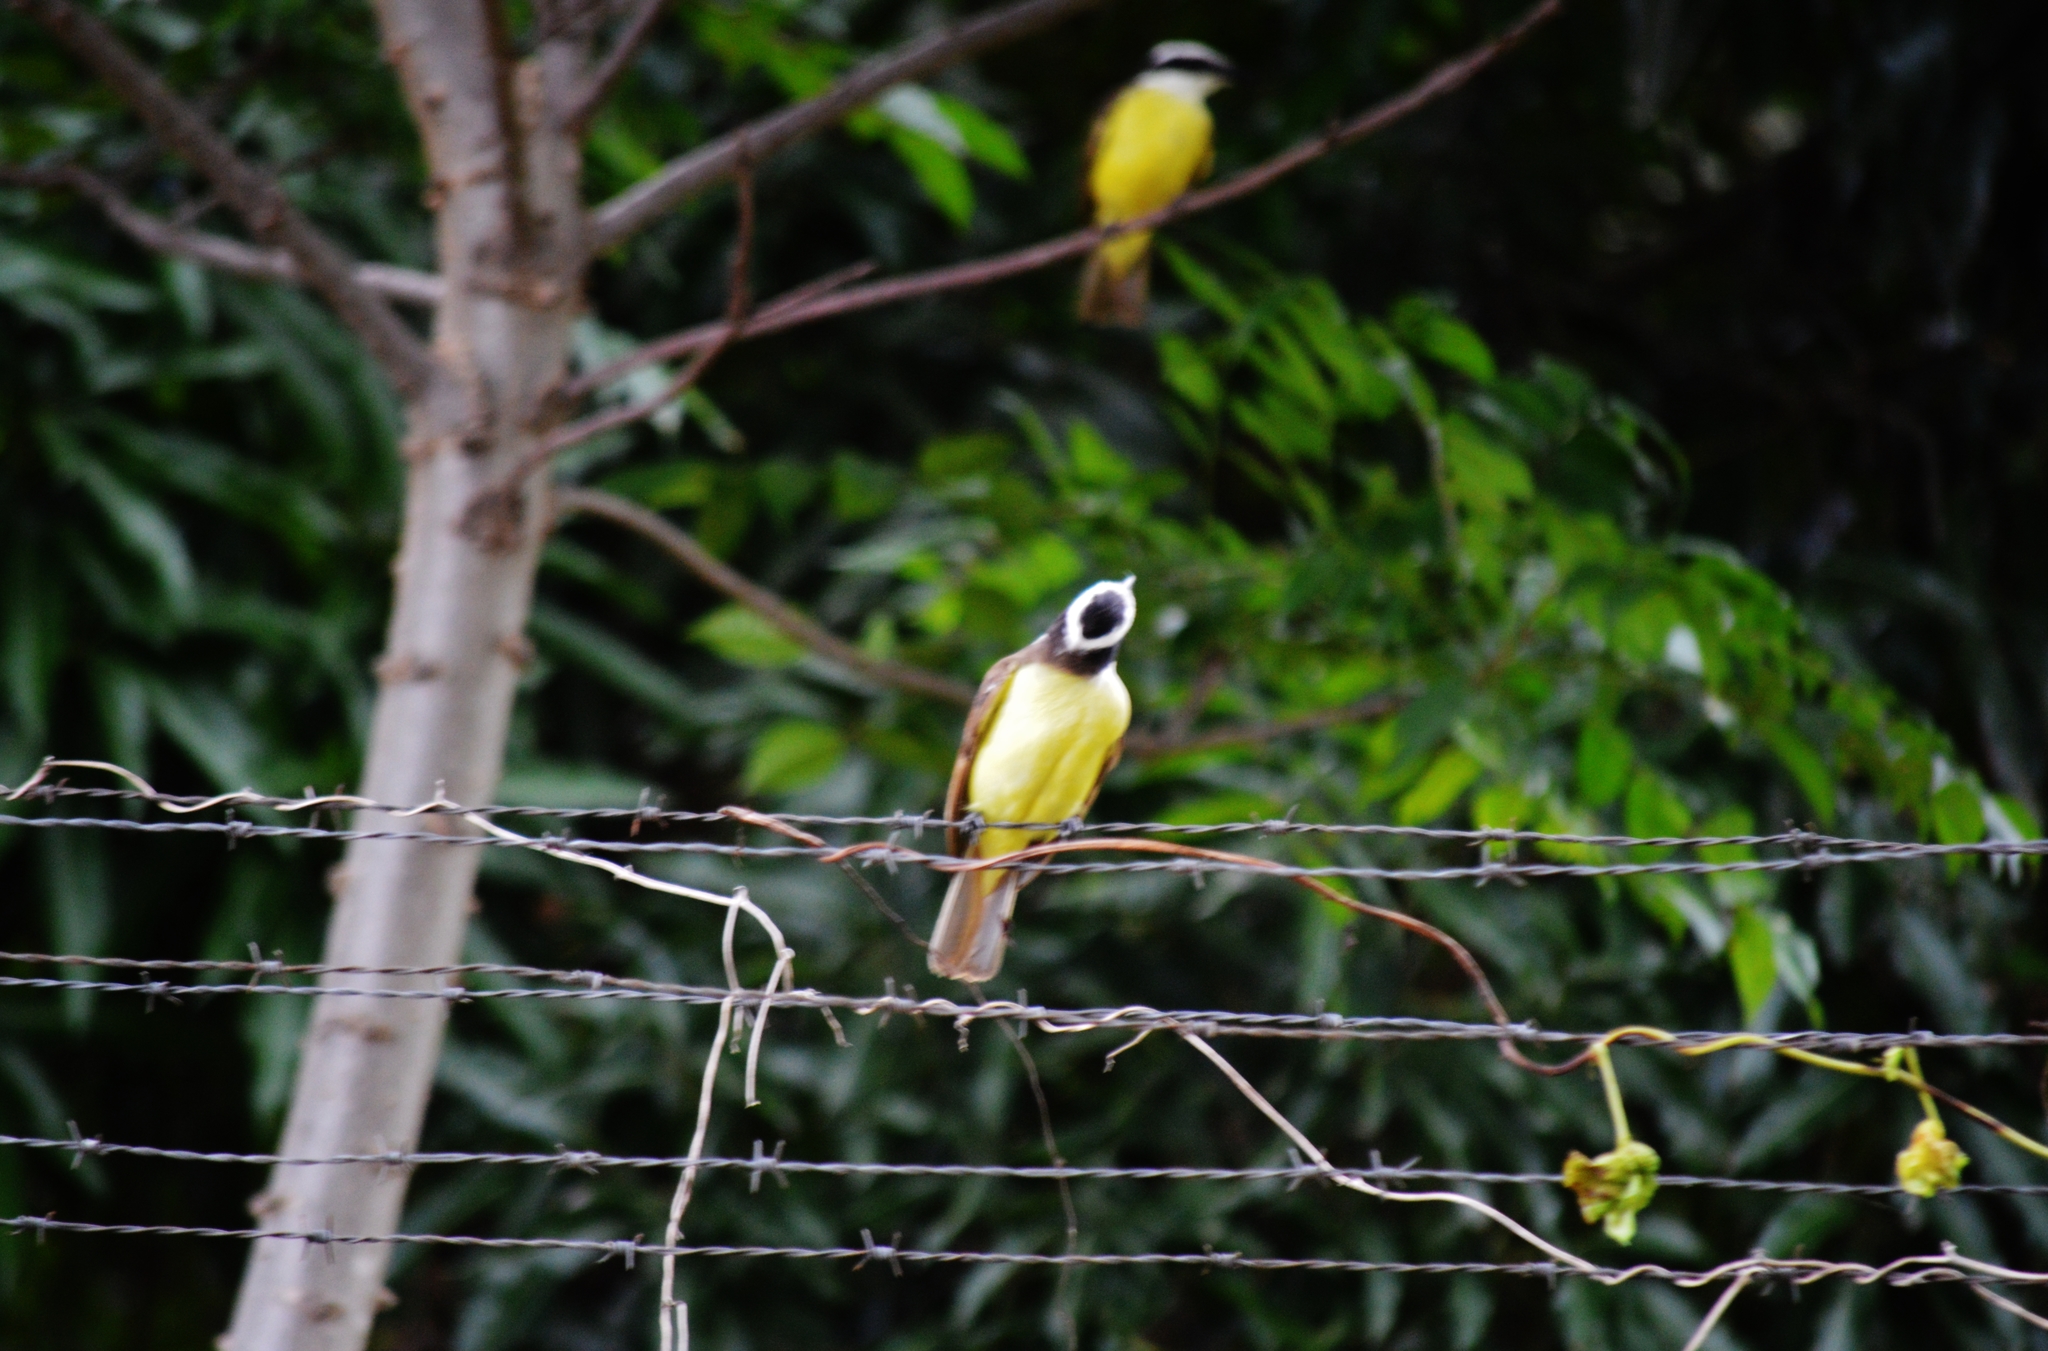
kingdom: Animalia
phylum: Chordata
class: Aves
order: Passeriformes
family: Tyrannidae
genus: Pitangus
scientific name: Pitangus sulphuratus
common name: Great kiskadee
